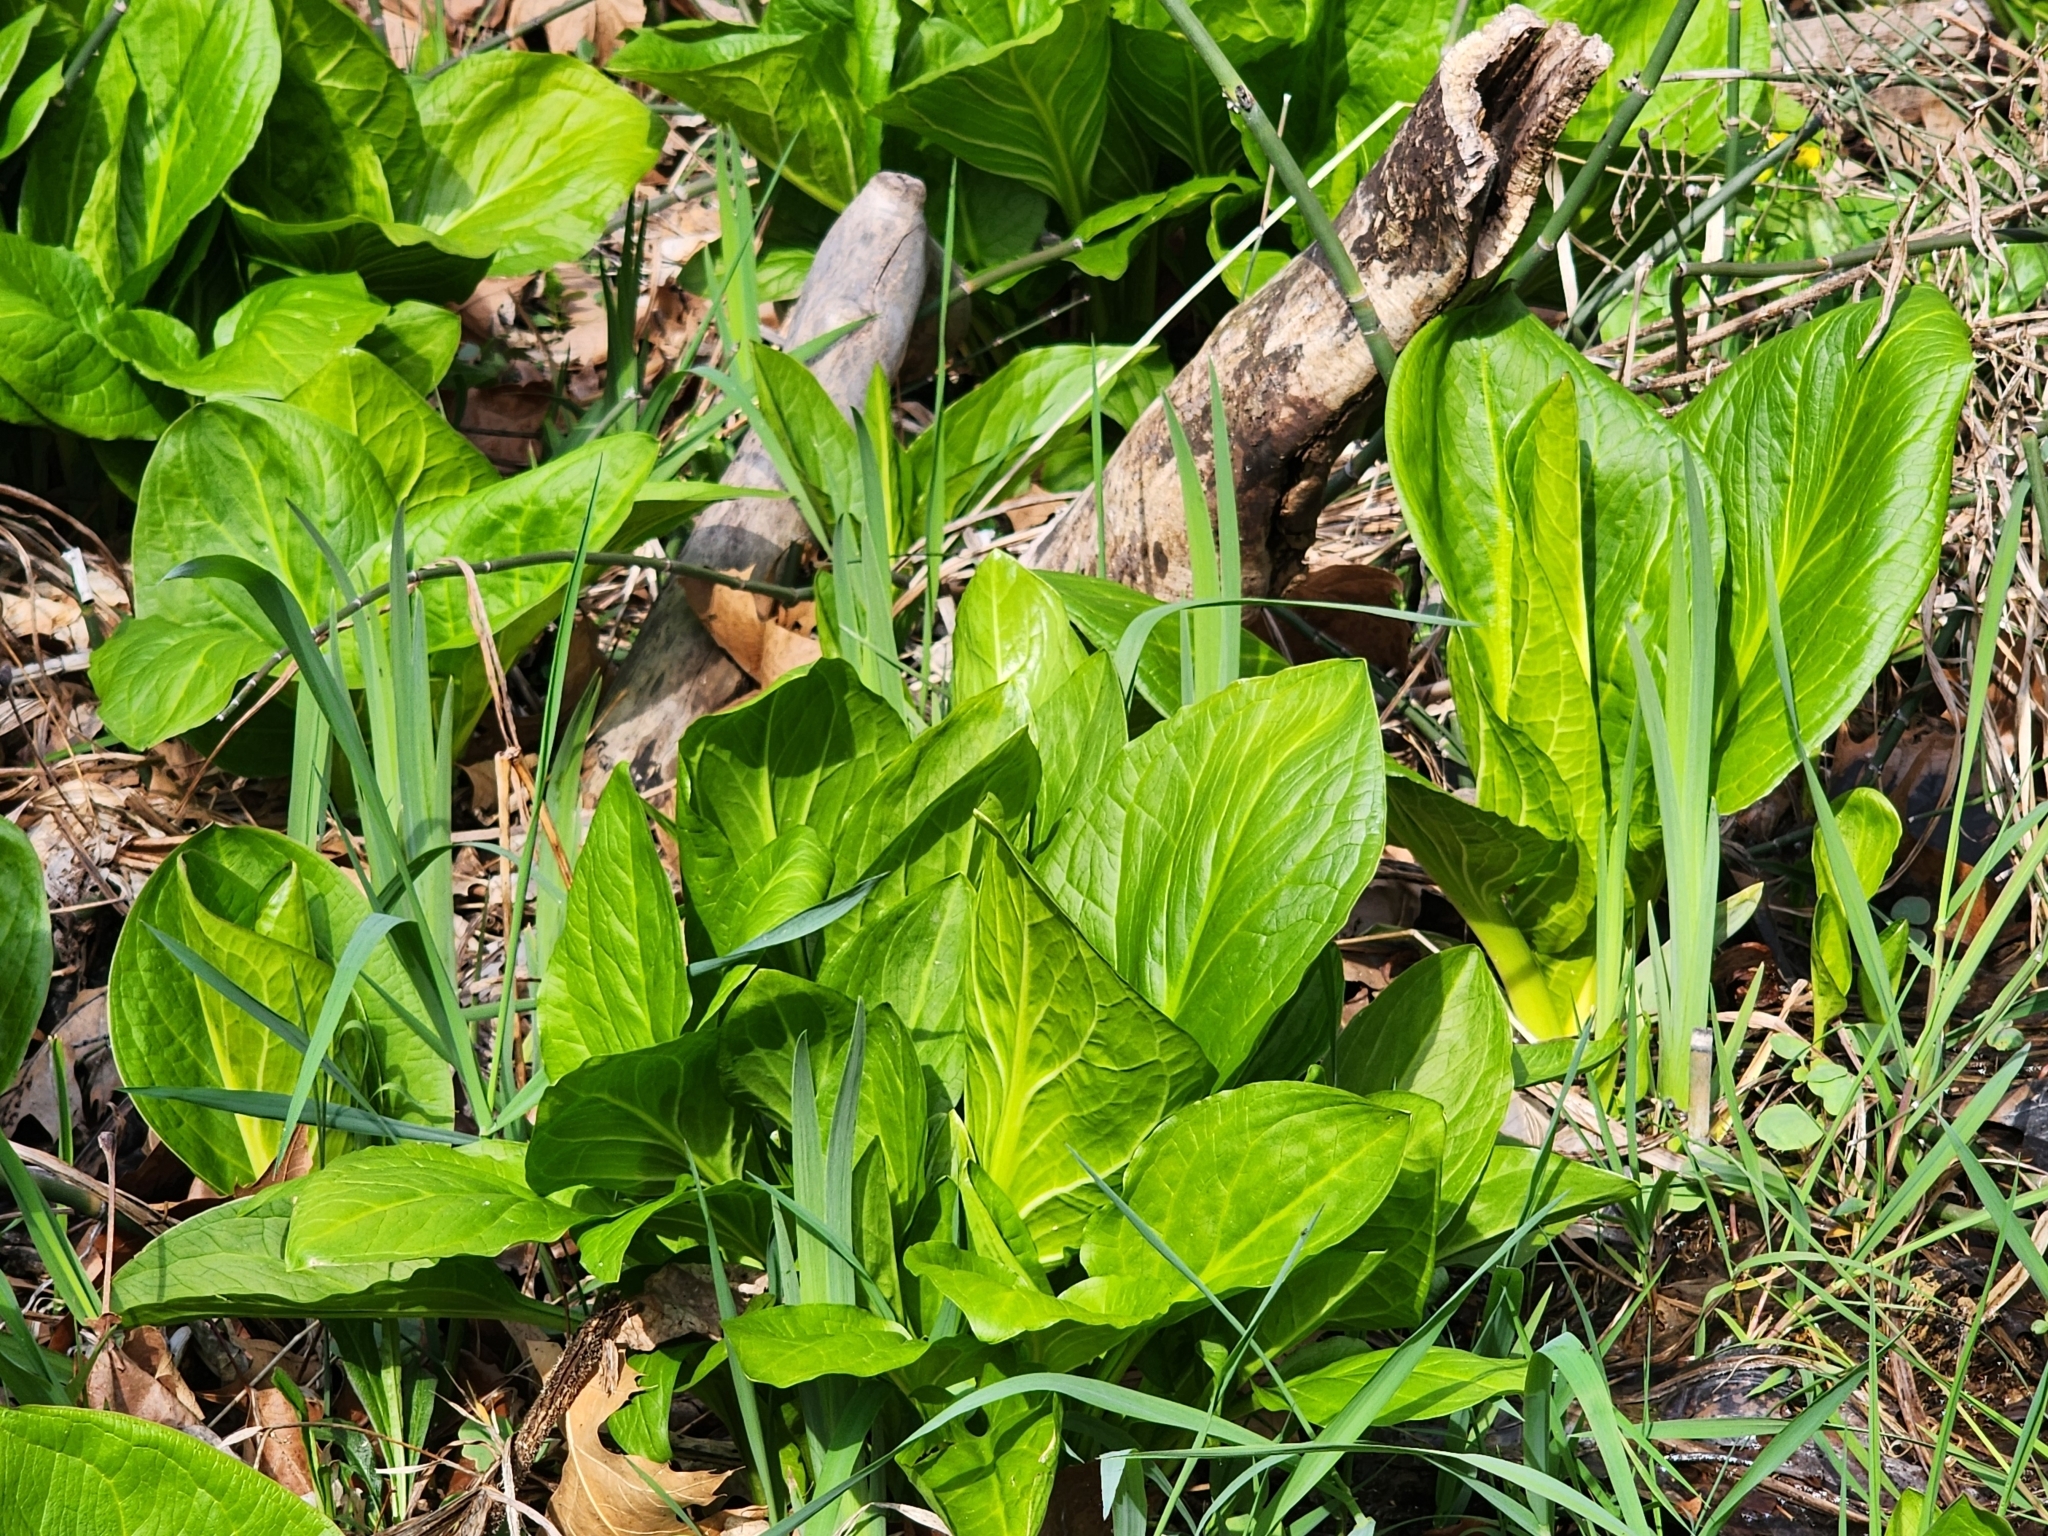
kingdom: Plantae
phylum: Tracheophyta
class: Liliopsida
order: Alismatales
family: Araceae
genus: Symplocarpus
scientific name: Symplocarpus foetidus
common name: Eastern skunk cabbage
